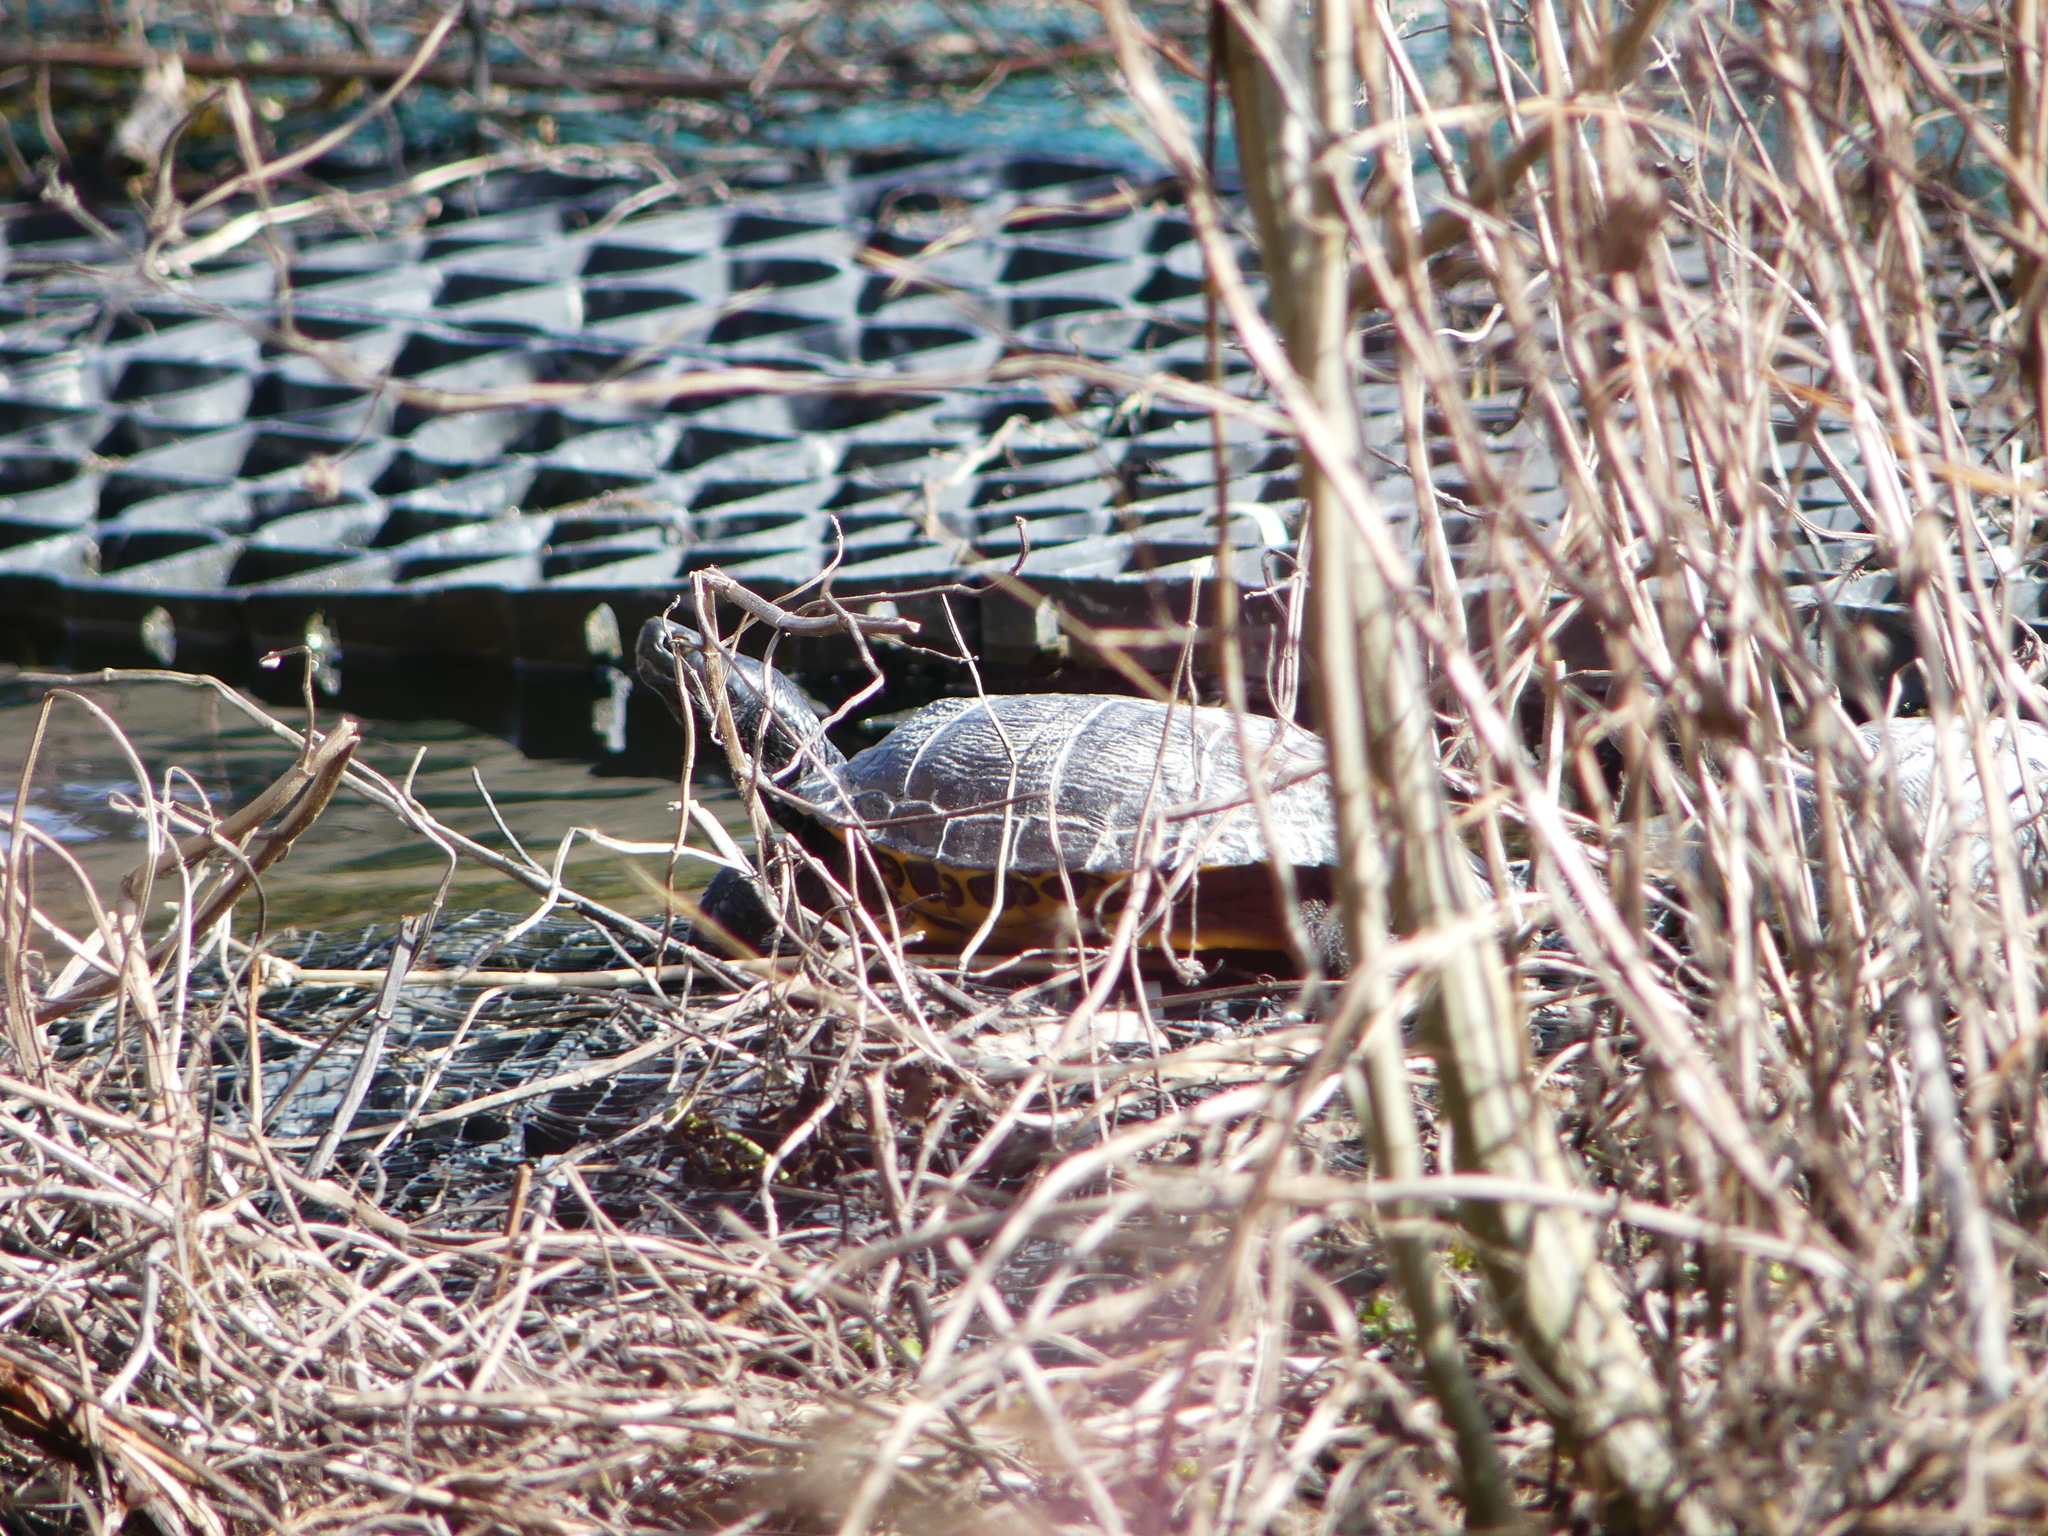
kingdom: Animalia
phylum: Chordata
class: Testudines
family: Emydidae
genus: Trachemys
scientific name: Trachemys scripta
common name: Slider
